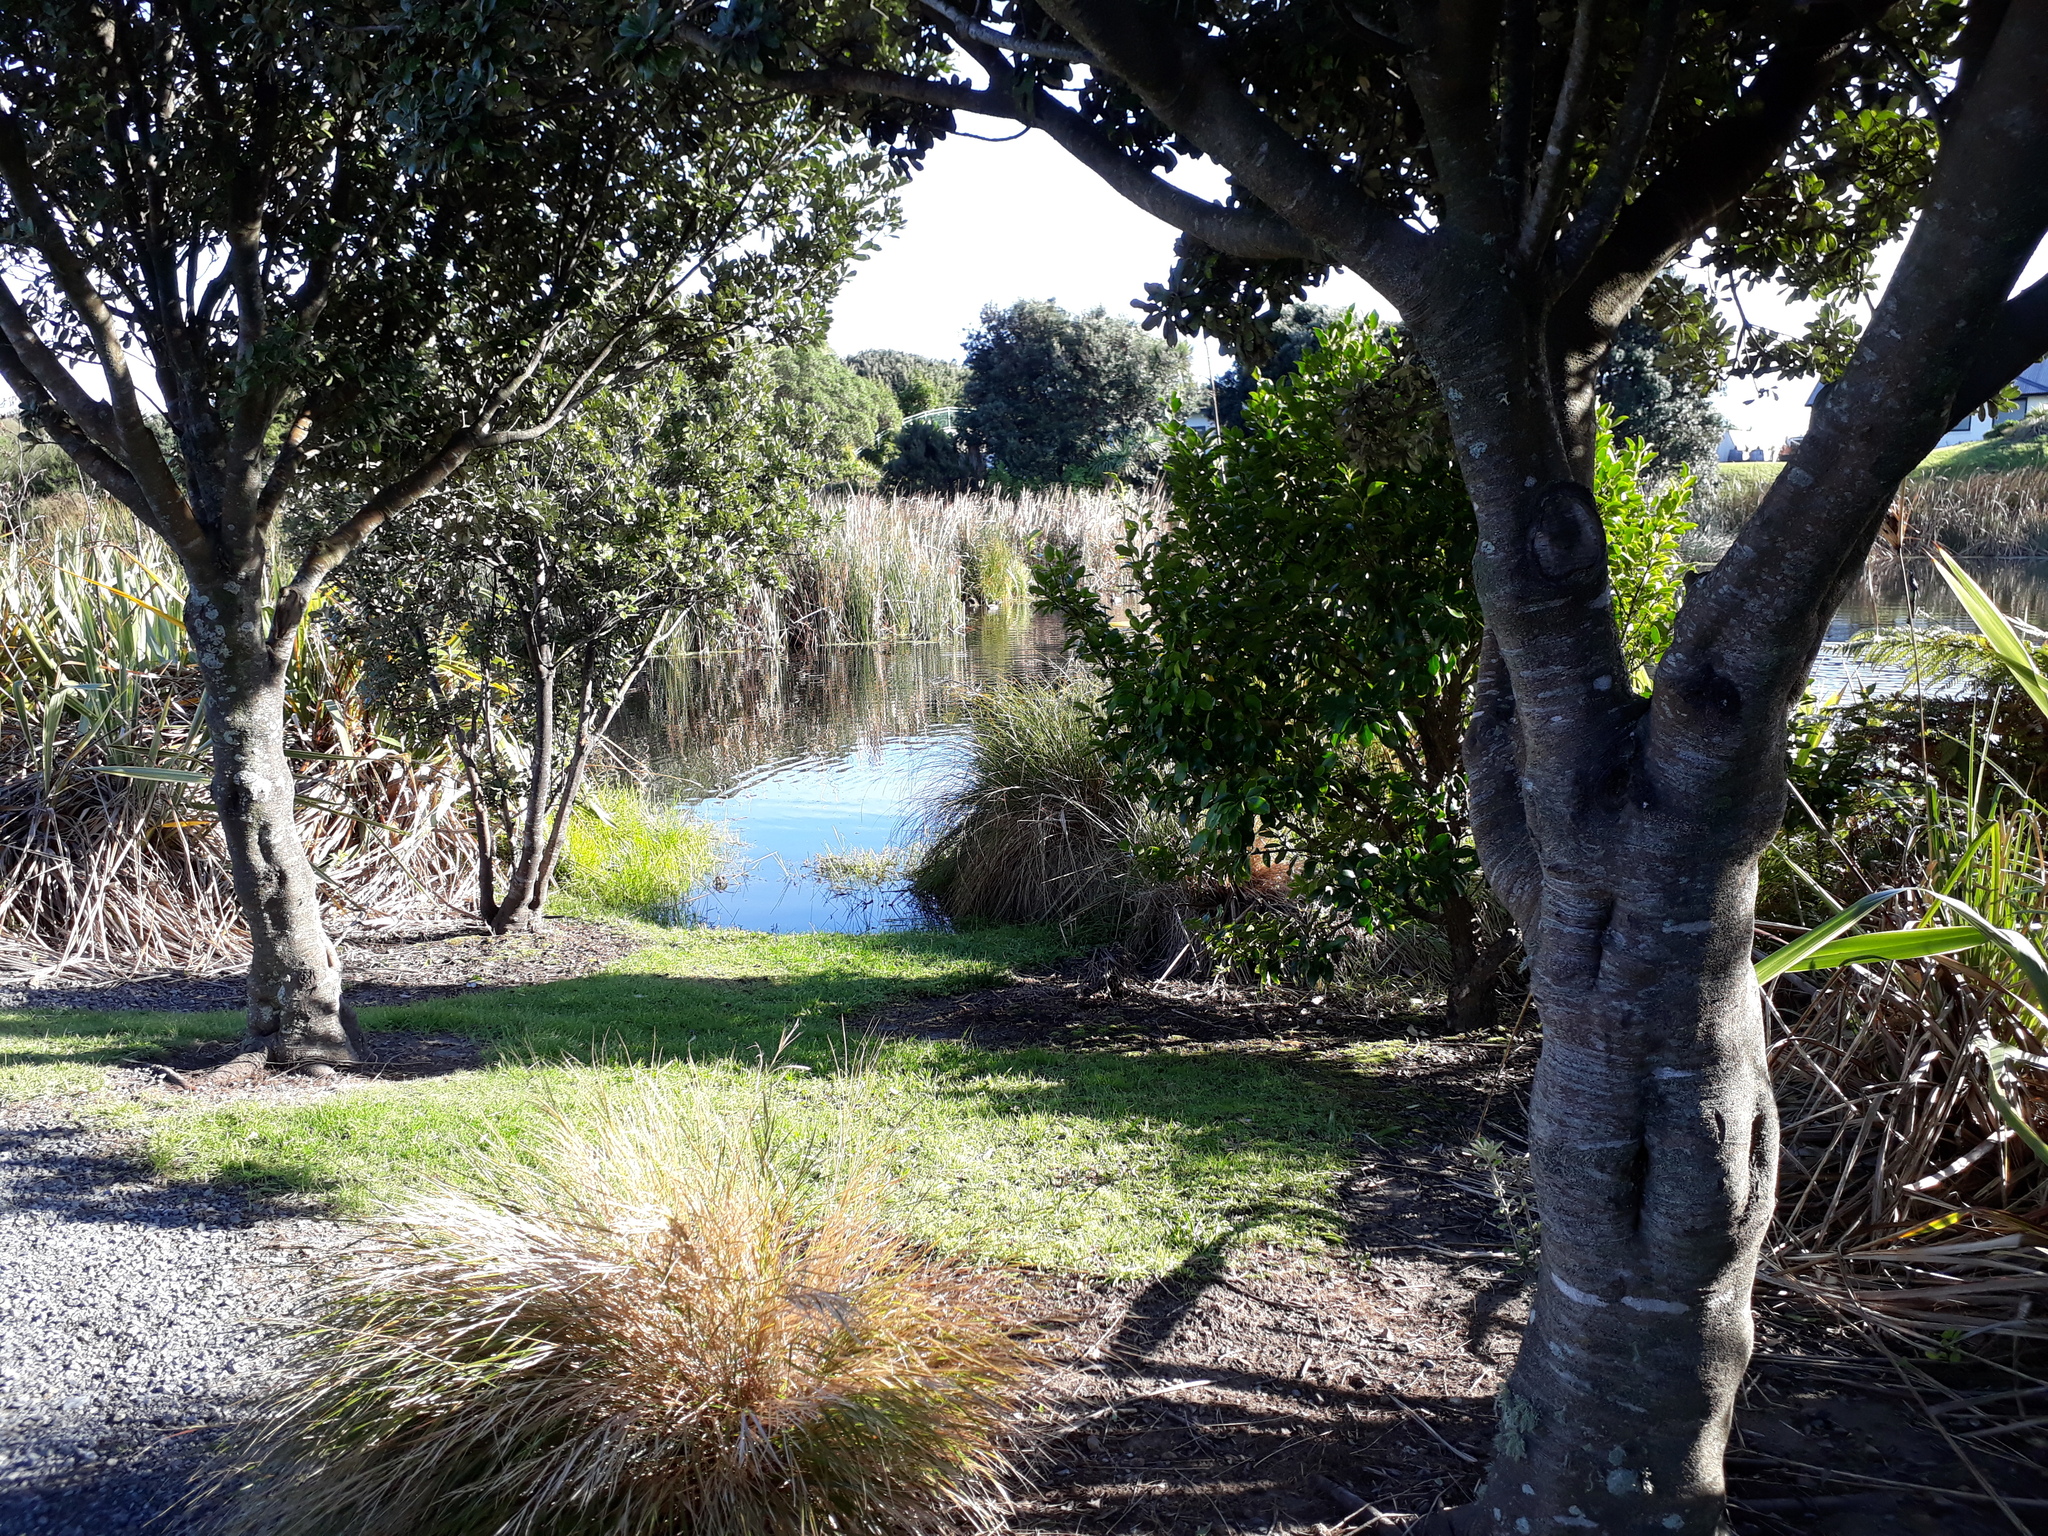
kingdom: Animalia
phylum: Chordata
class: Aves
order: Anseriformes
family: Anatidae
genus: Anas
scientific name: Anas platyrhynchos
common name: Mallard
